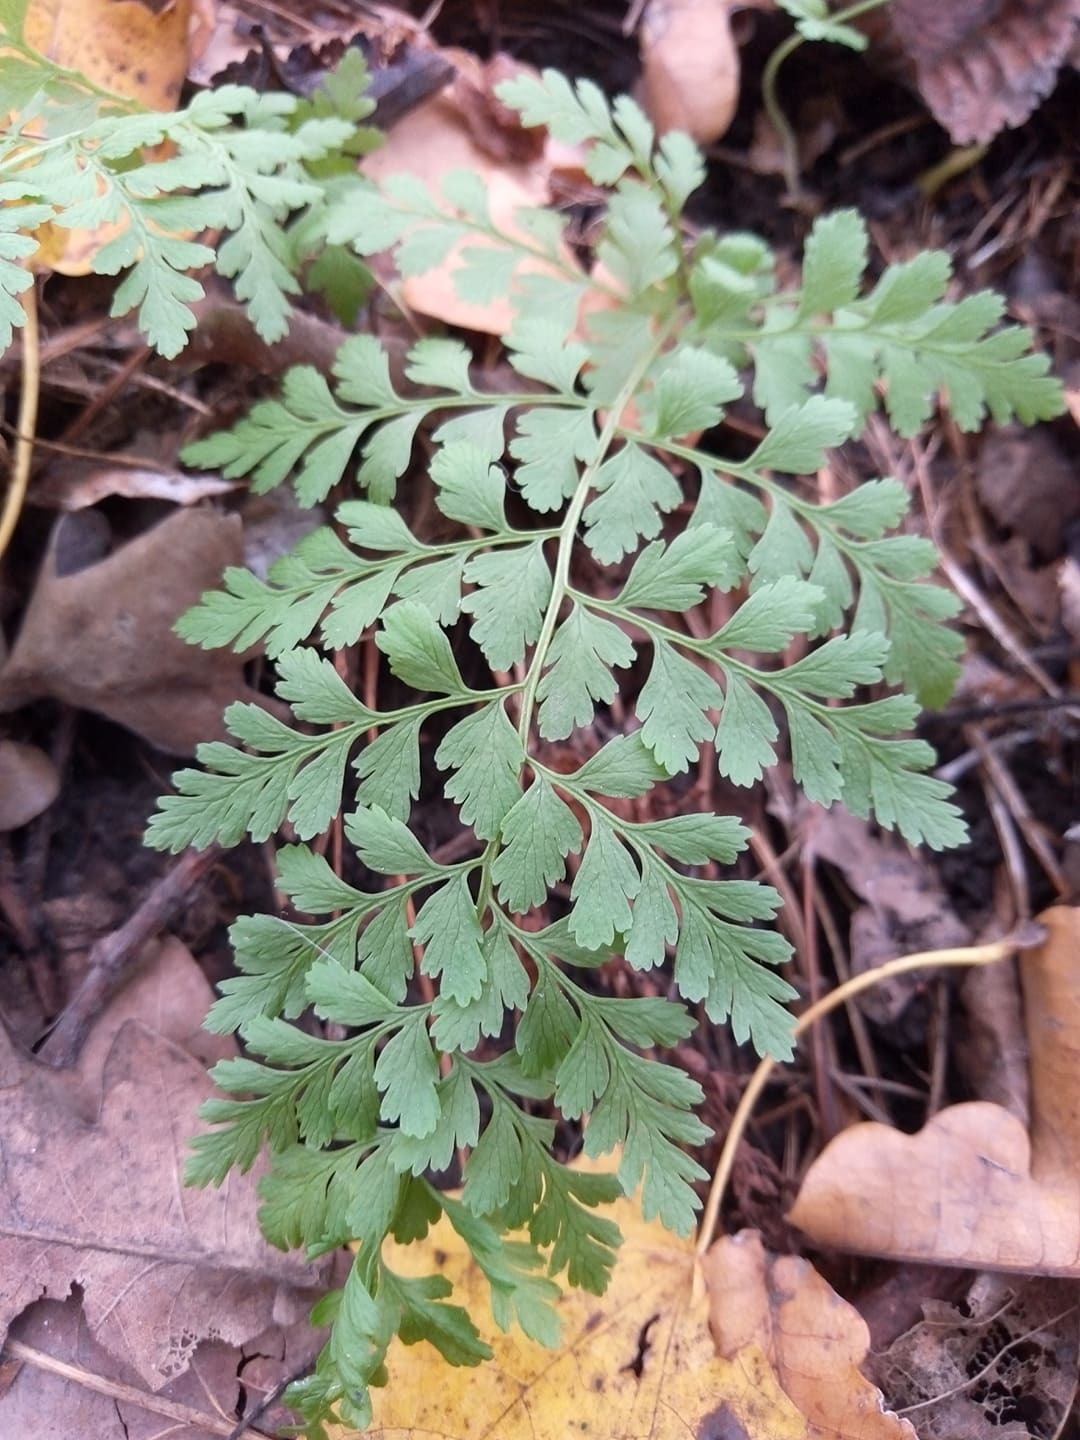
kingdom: Plantae
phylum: Tracheophyta
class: Polypodiopsida
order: Polypodiales
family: Cystopteridaceae
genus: Cystopteris
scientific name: Cystopteris fragilis
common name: Brittle bladder fern
